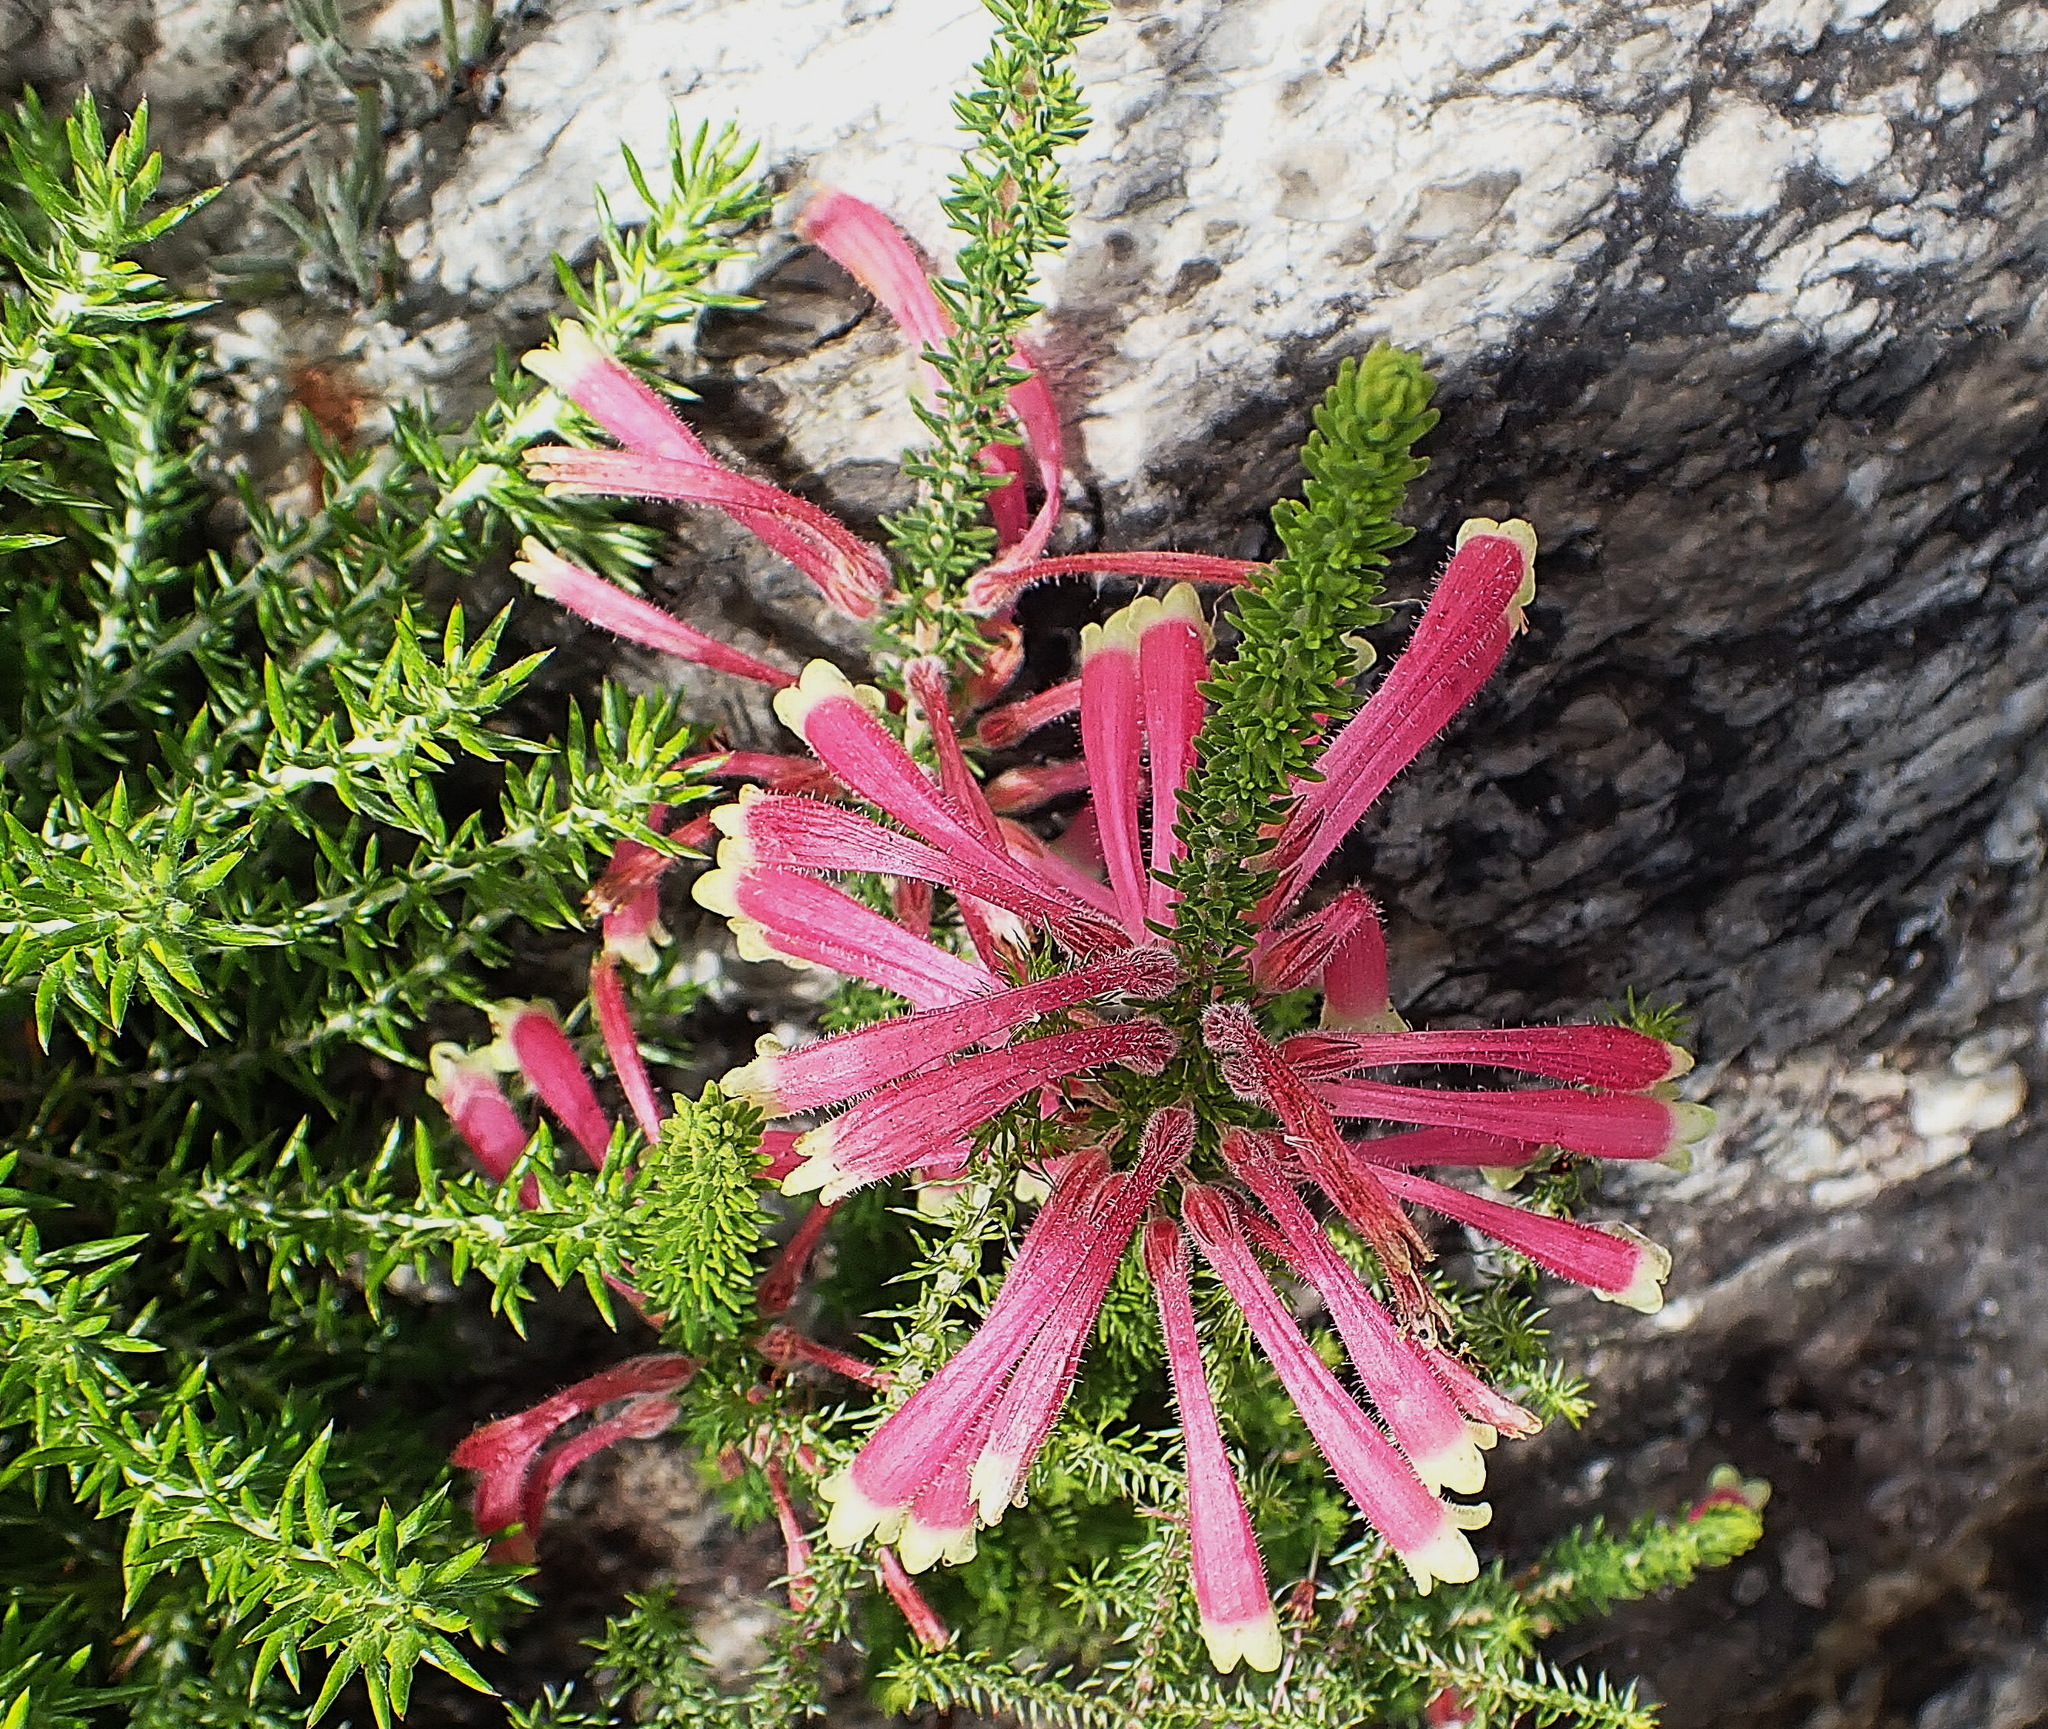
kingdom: Plantae
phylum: Tracheophyta
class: Magnoliopsida
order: Ericales
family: Ericaceae
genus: Erica
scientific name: Erica densifolia
